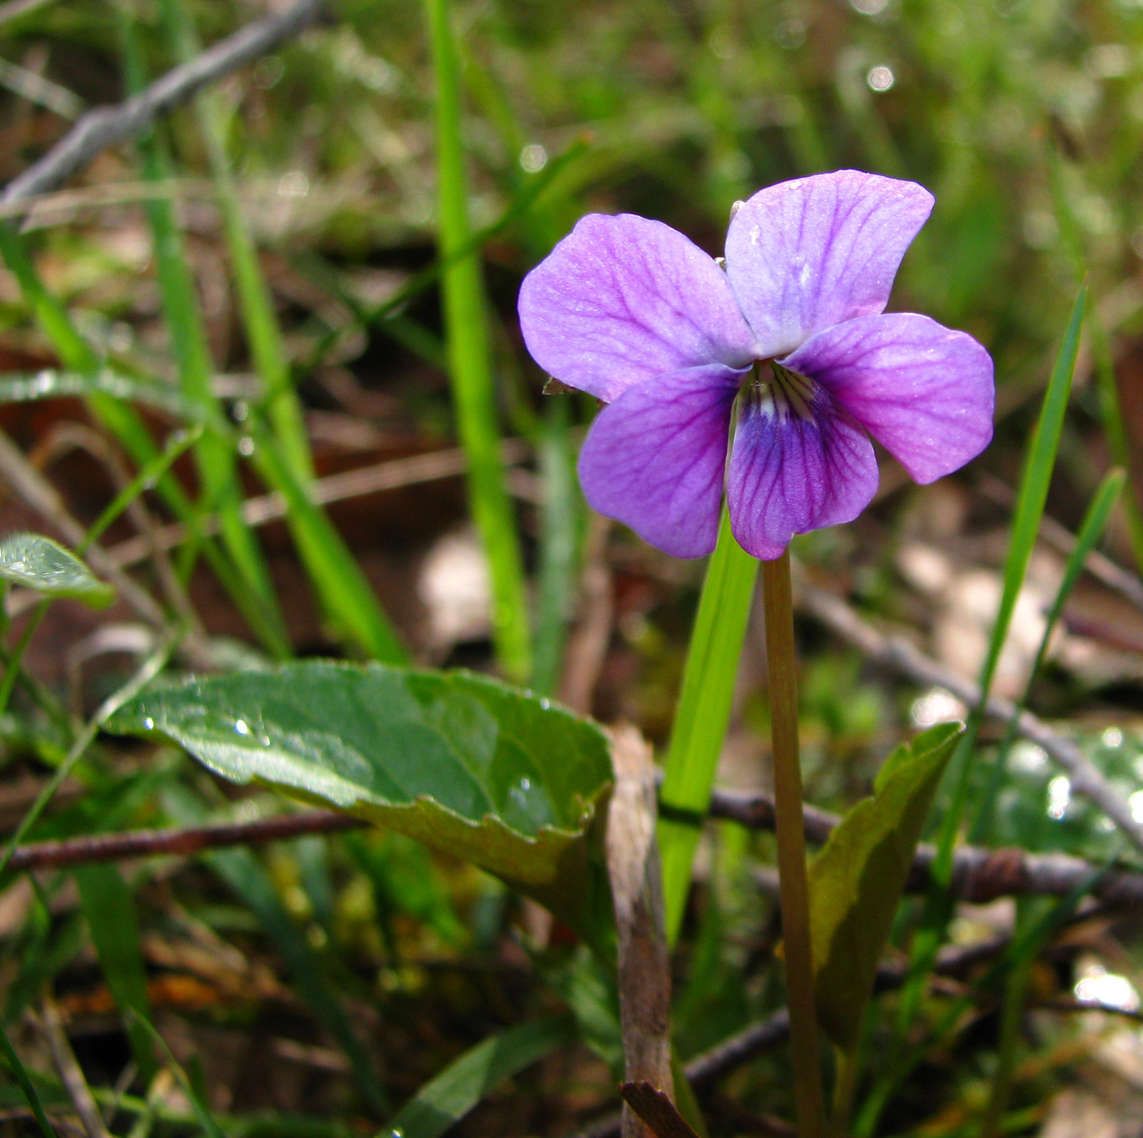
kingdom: Plantae
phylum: Tracheophyta
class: Magnoliopsida
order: Malpighiales
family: Violaceae
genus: Viola
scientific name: Viola betonicifolia
